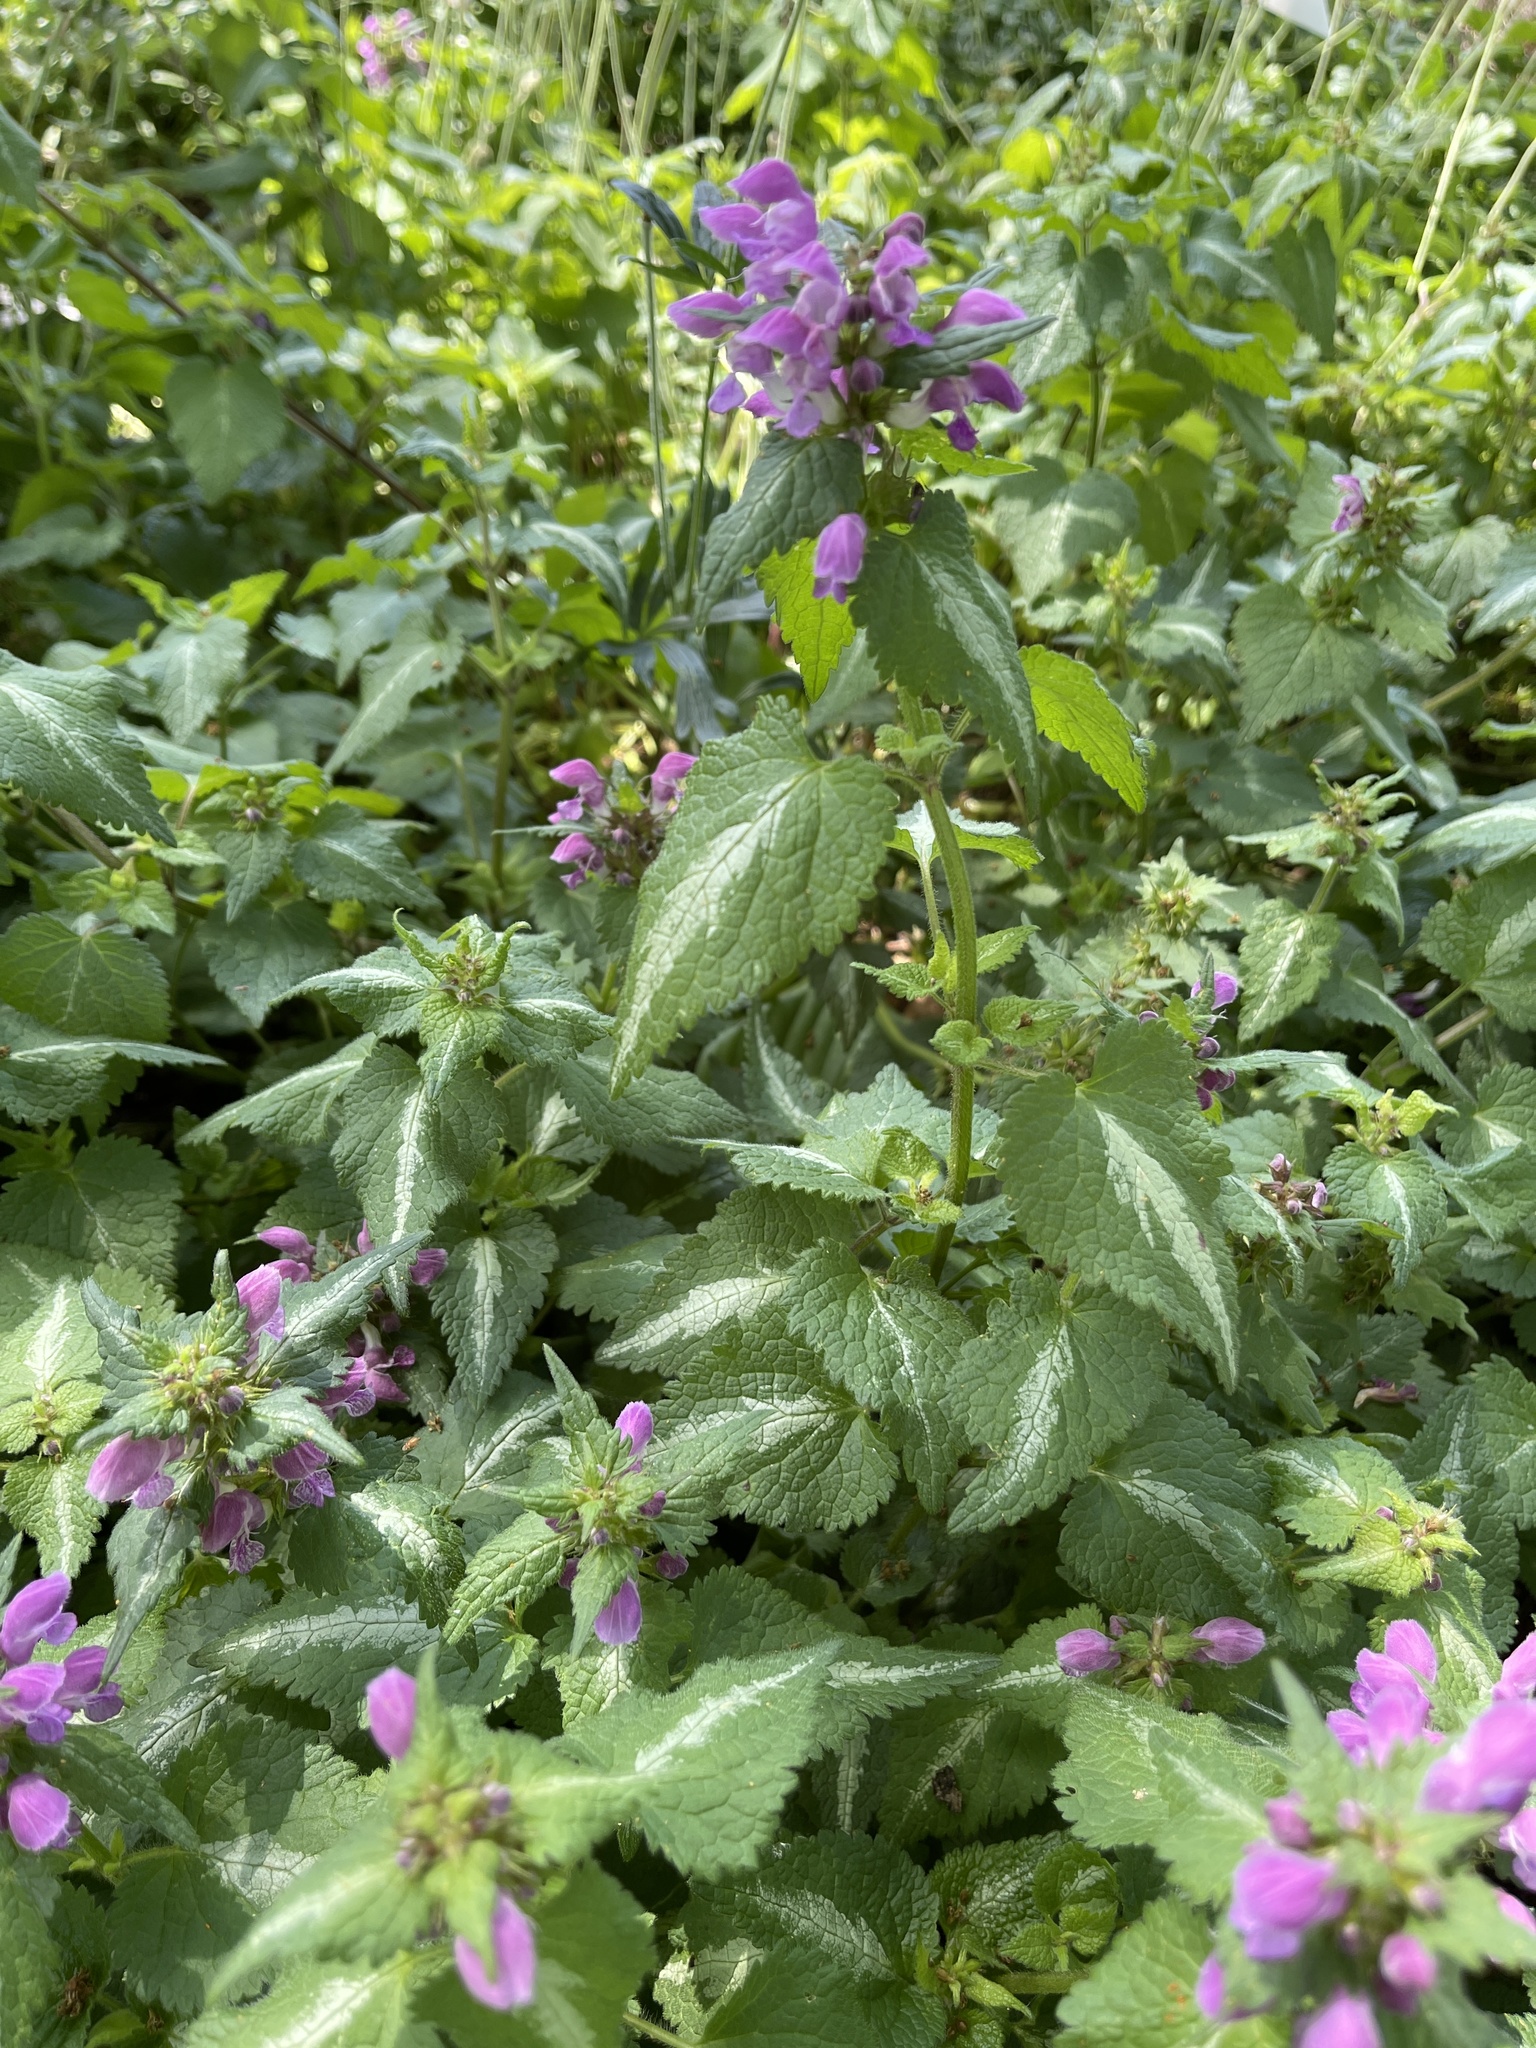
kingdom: Plantae
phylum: Tracheophyta
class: Magnoliopsida
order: Lamiales
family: Lamiaceae
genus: Lamium
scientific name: Lamium maculatum
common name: Spotted dead-nettle
